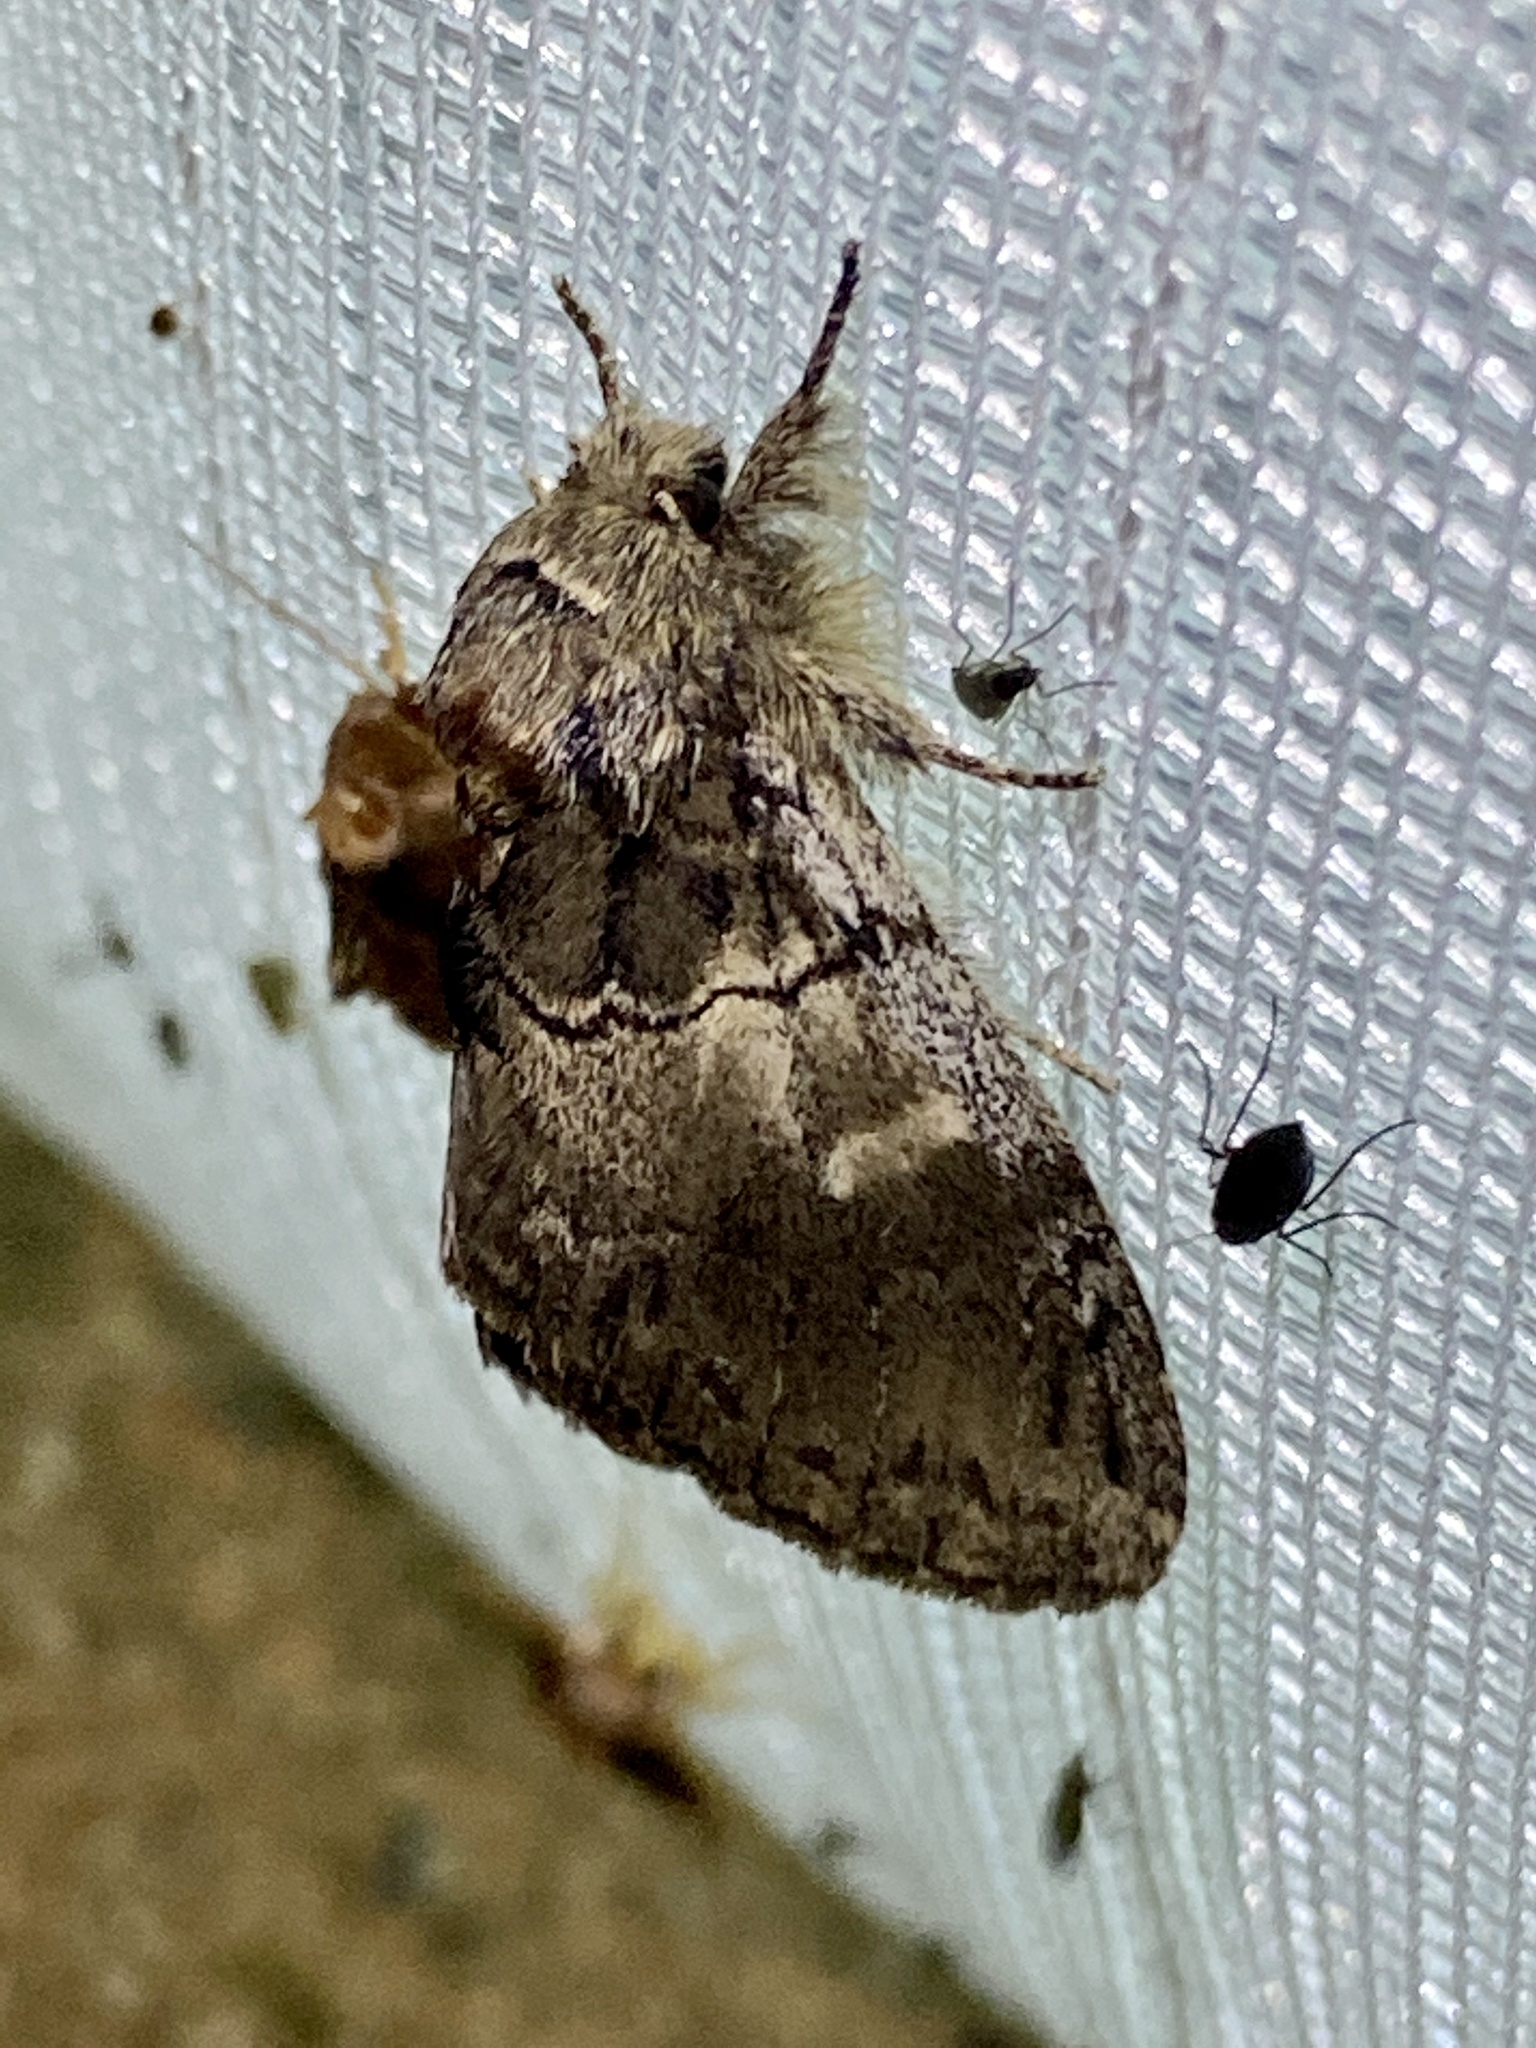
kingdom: Animalia
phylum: Arthropoda
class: Insecta
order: Lepidoptera
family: Notodontidae
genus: Peridea
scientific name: Peridea oberthueri
